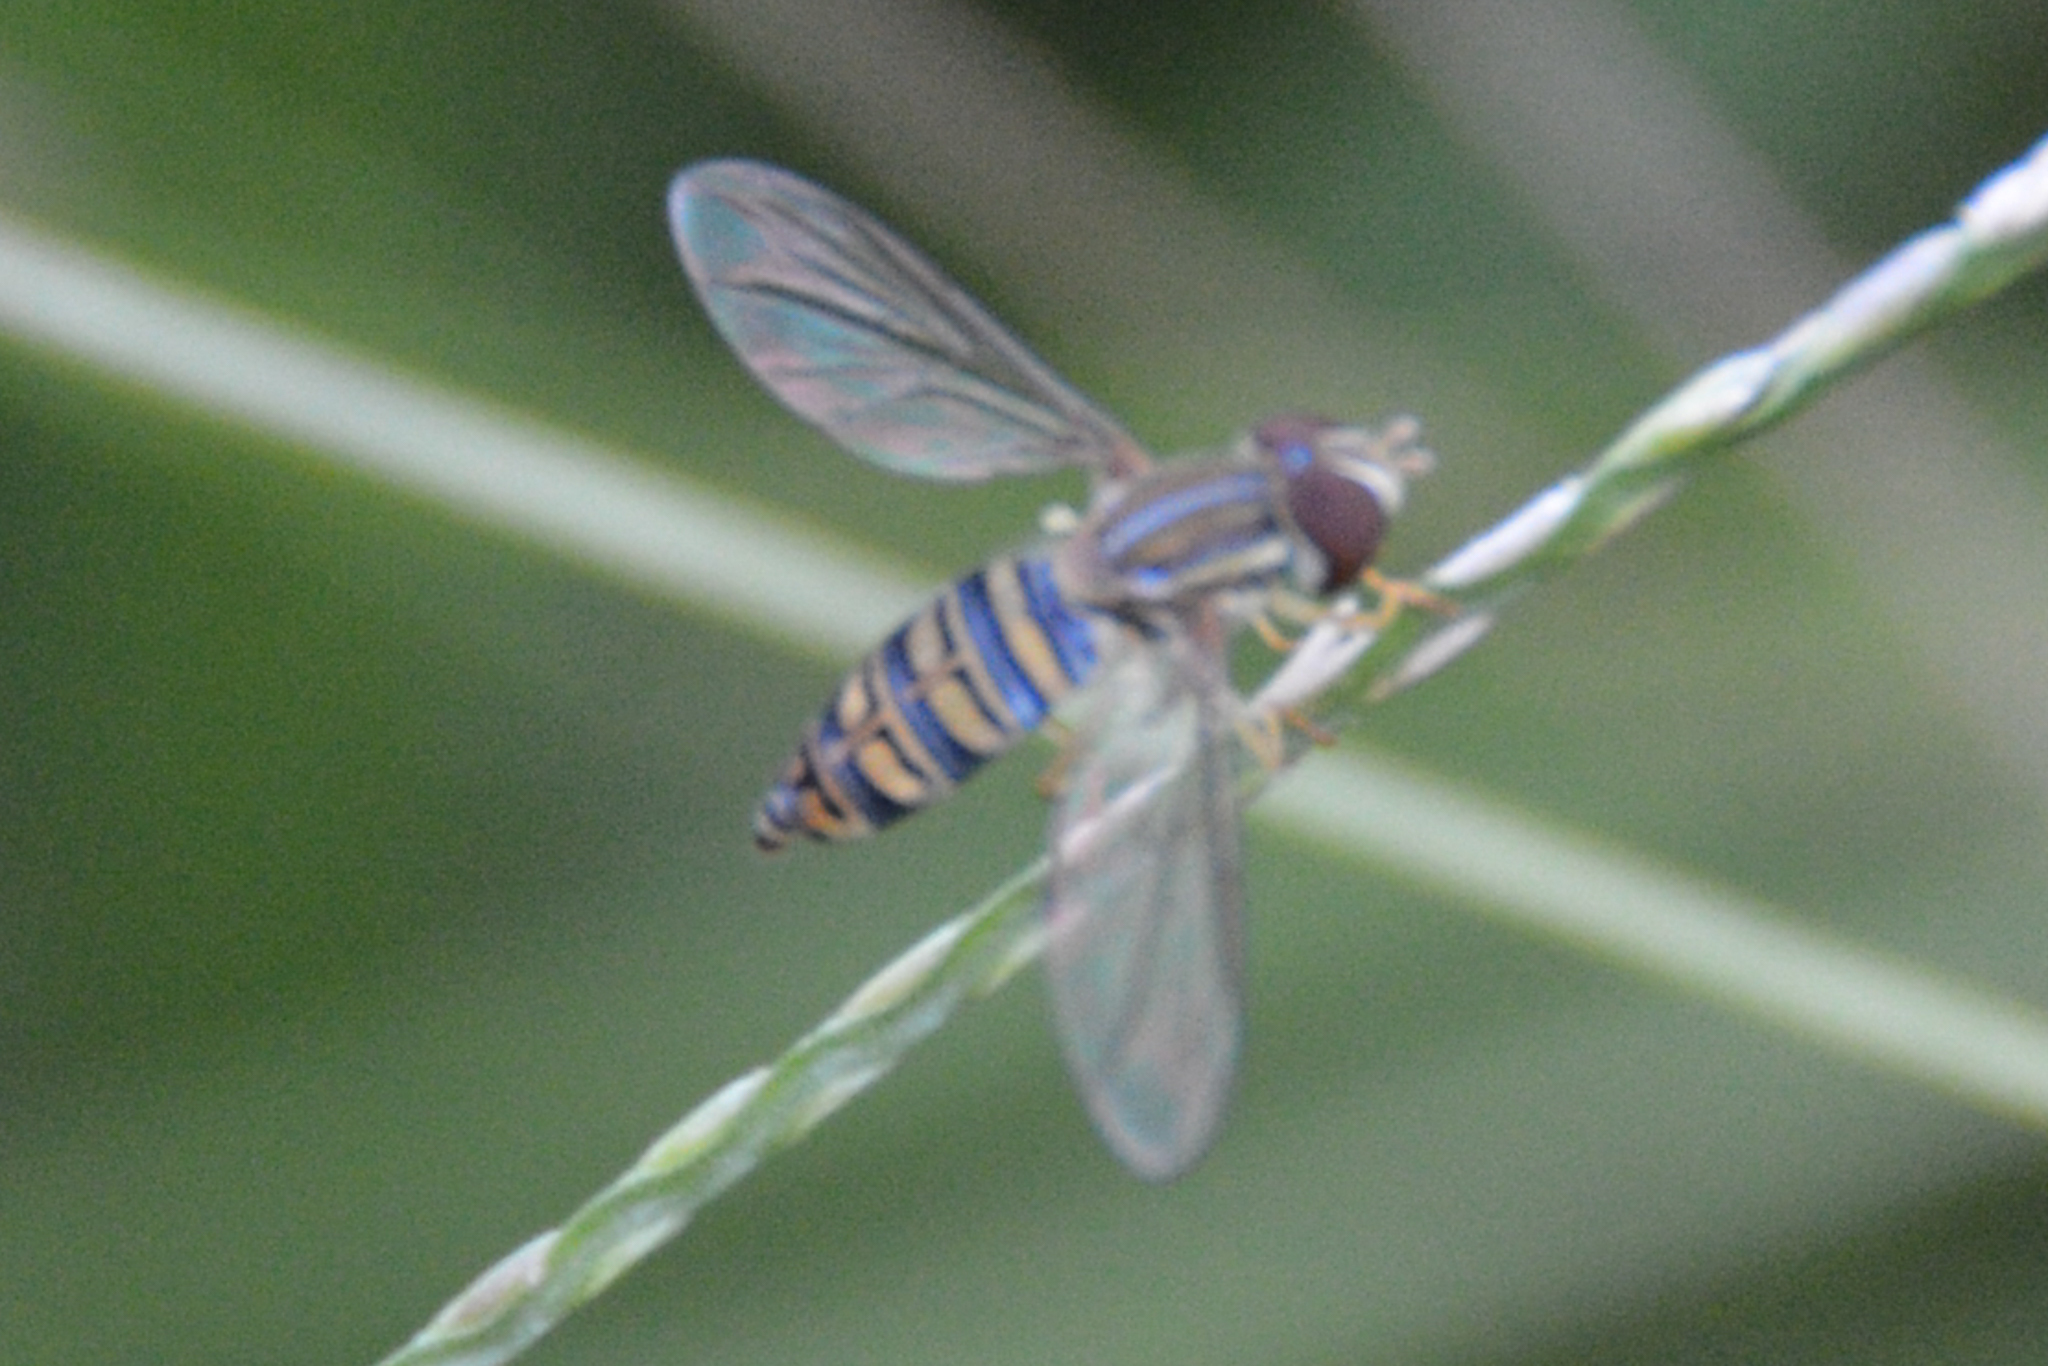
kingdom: Animalia
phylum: Arthropoda
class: Insecta
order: Diptera
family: Syrphidae
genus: Toxomerus
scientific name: Toxomerus politus
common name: Maize calligrapher
